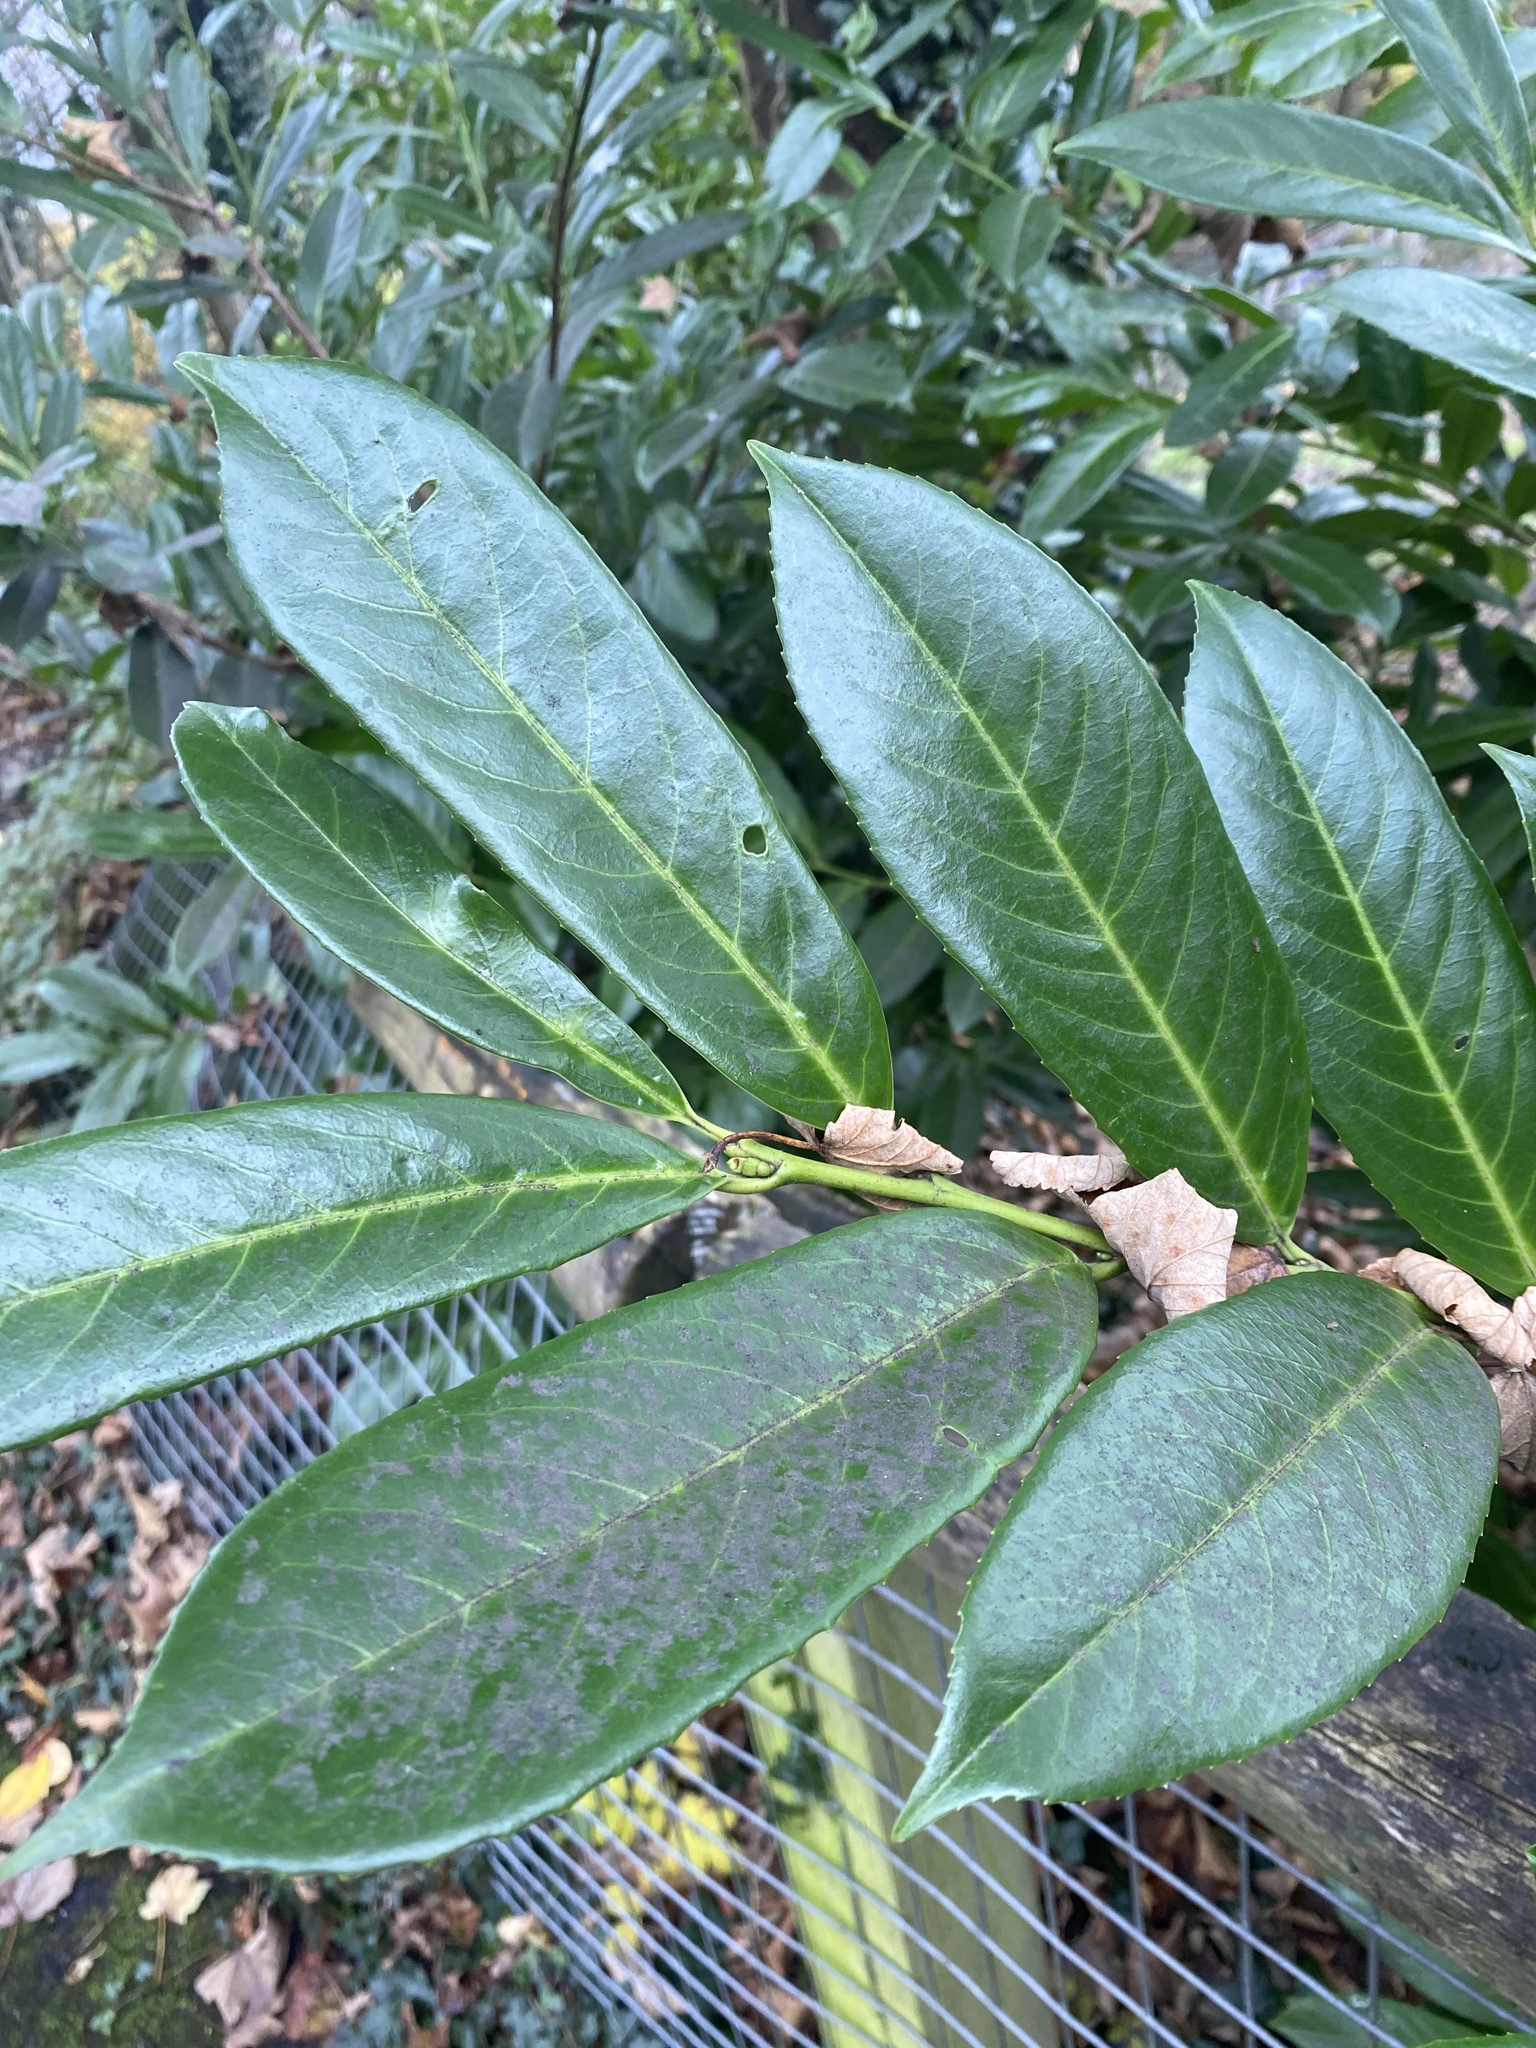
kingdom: Plantae
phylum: Tracheophyta
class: Magnoliopsida
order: Rosales
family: Rosaceae
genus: Prunus
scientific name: Prunus laurocerasus
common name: Cherry laurel
